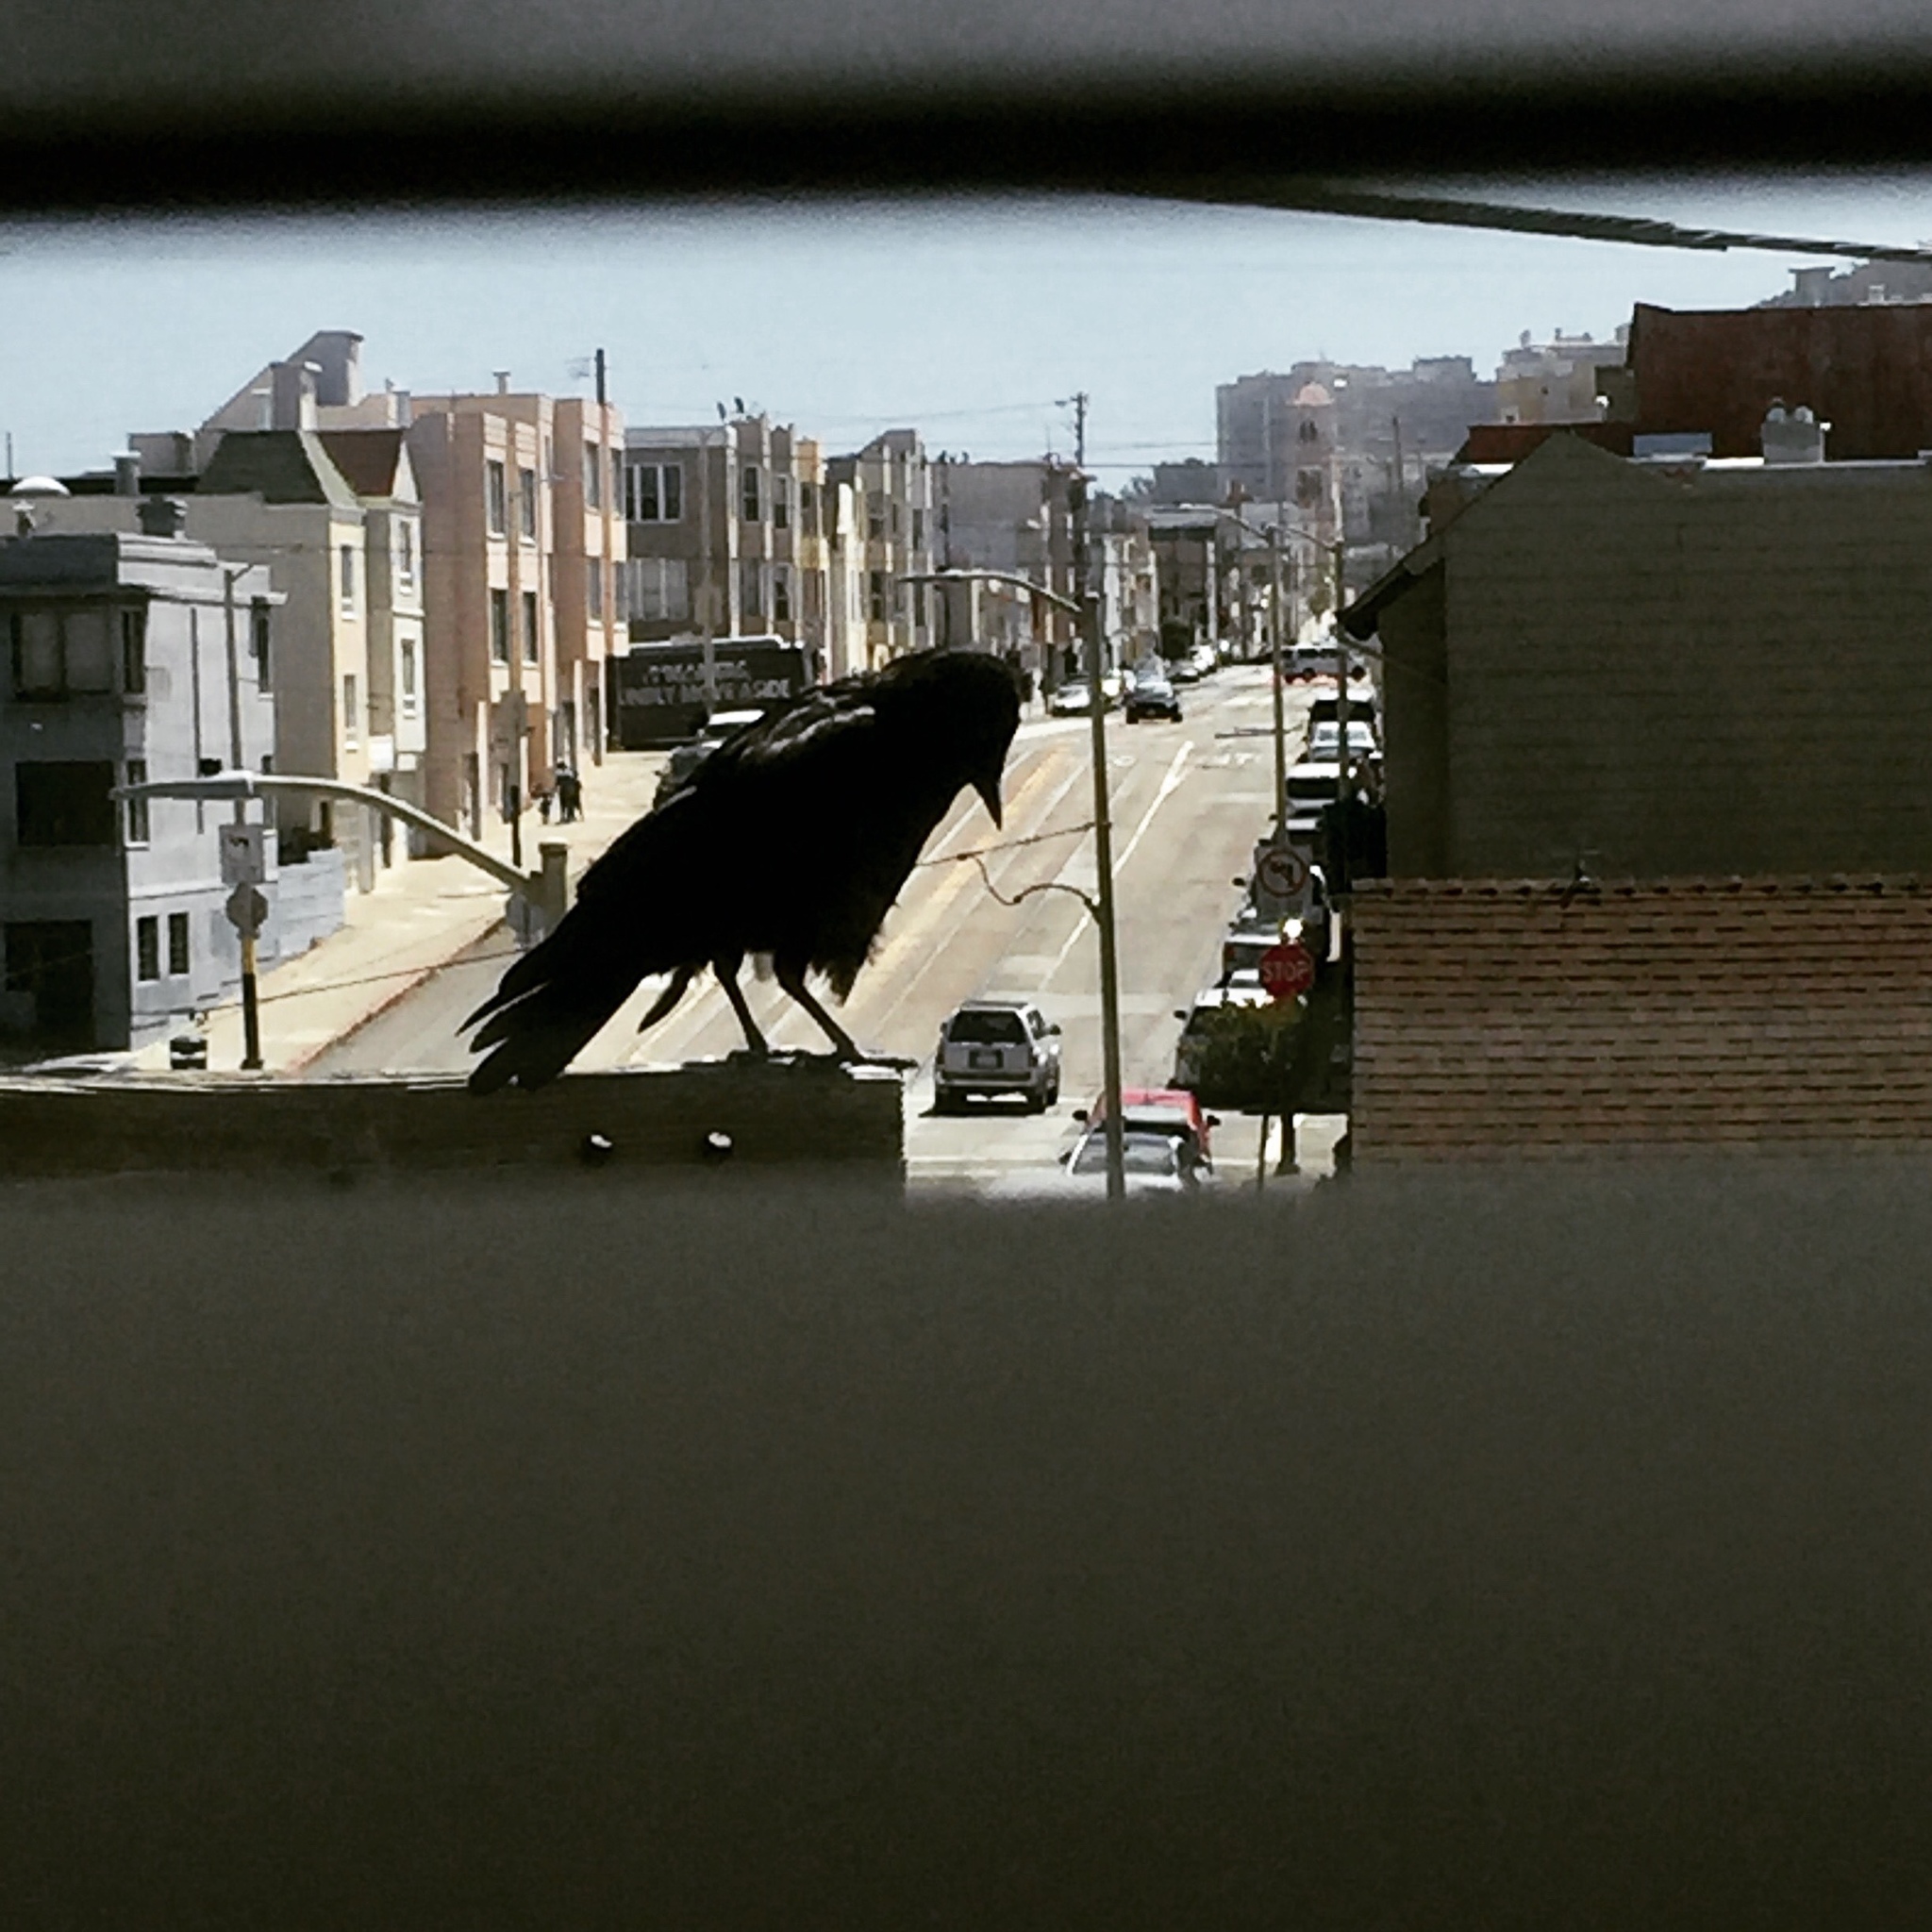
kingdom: Animalia
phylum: Chordata
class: Aves
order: Passeriformes
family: Corvidae
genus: Corvus
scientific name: Corvus brachyrhynchos
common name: American crow
